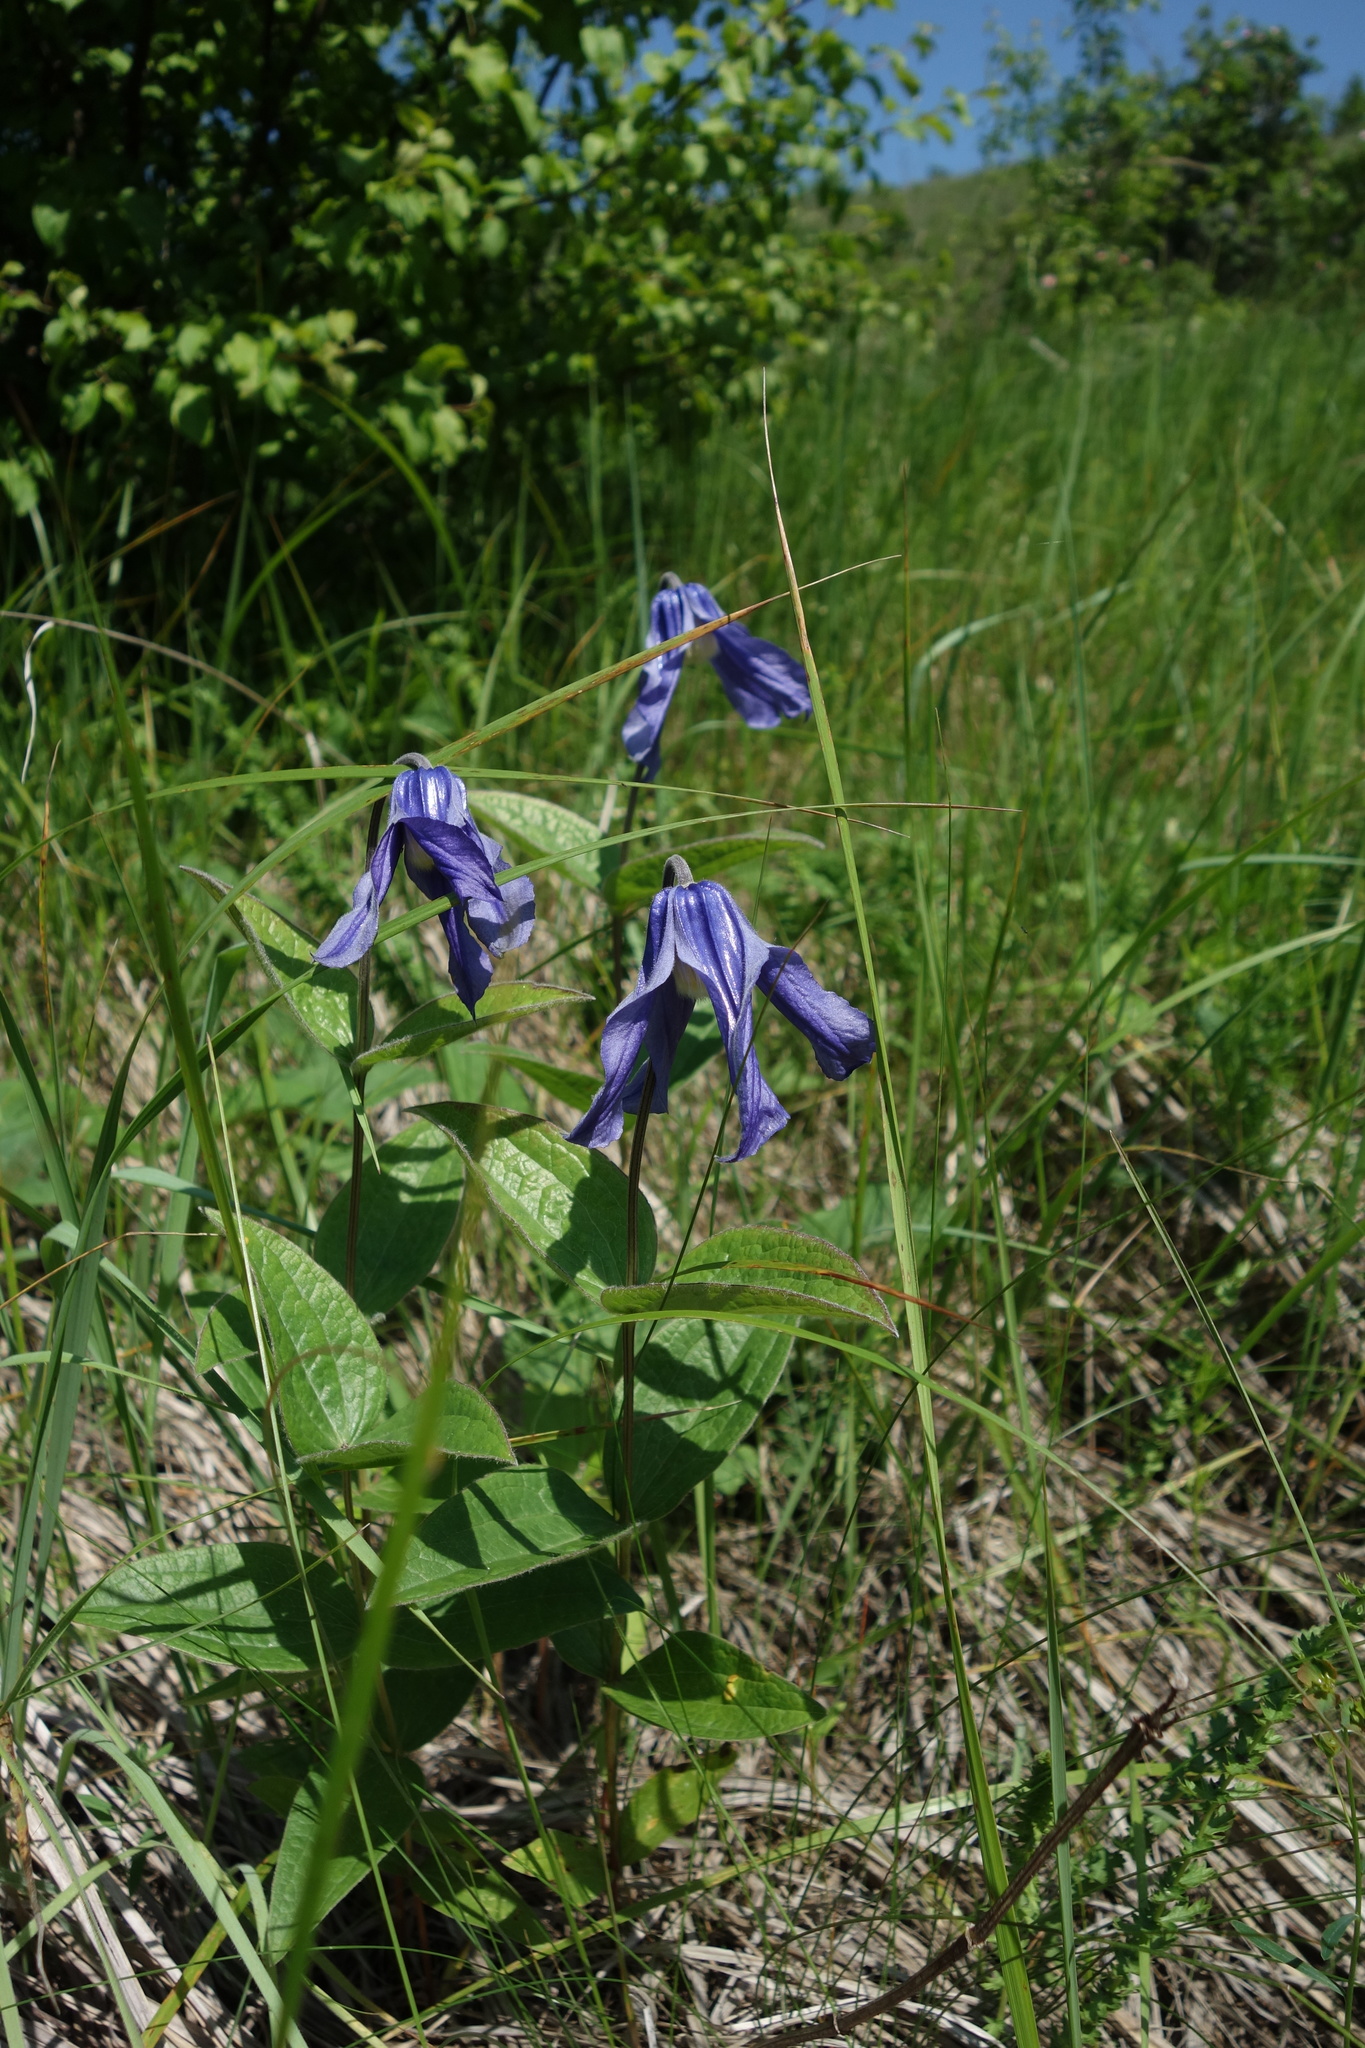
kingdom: Plantae
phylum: Tracheophyta
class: Magnoliopsida
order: Ranunculales
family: Ranunculaceae
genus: Clematis
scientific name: Clematis integrifolia
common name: Solitary clematis
